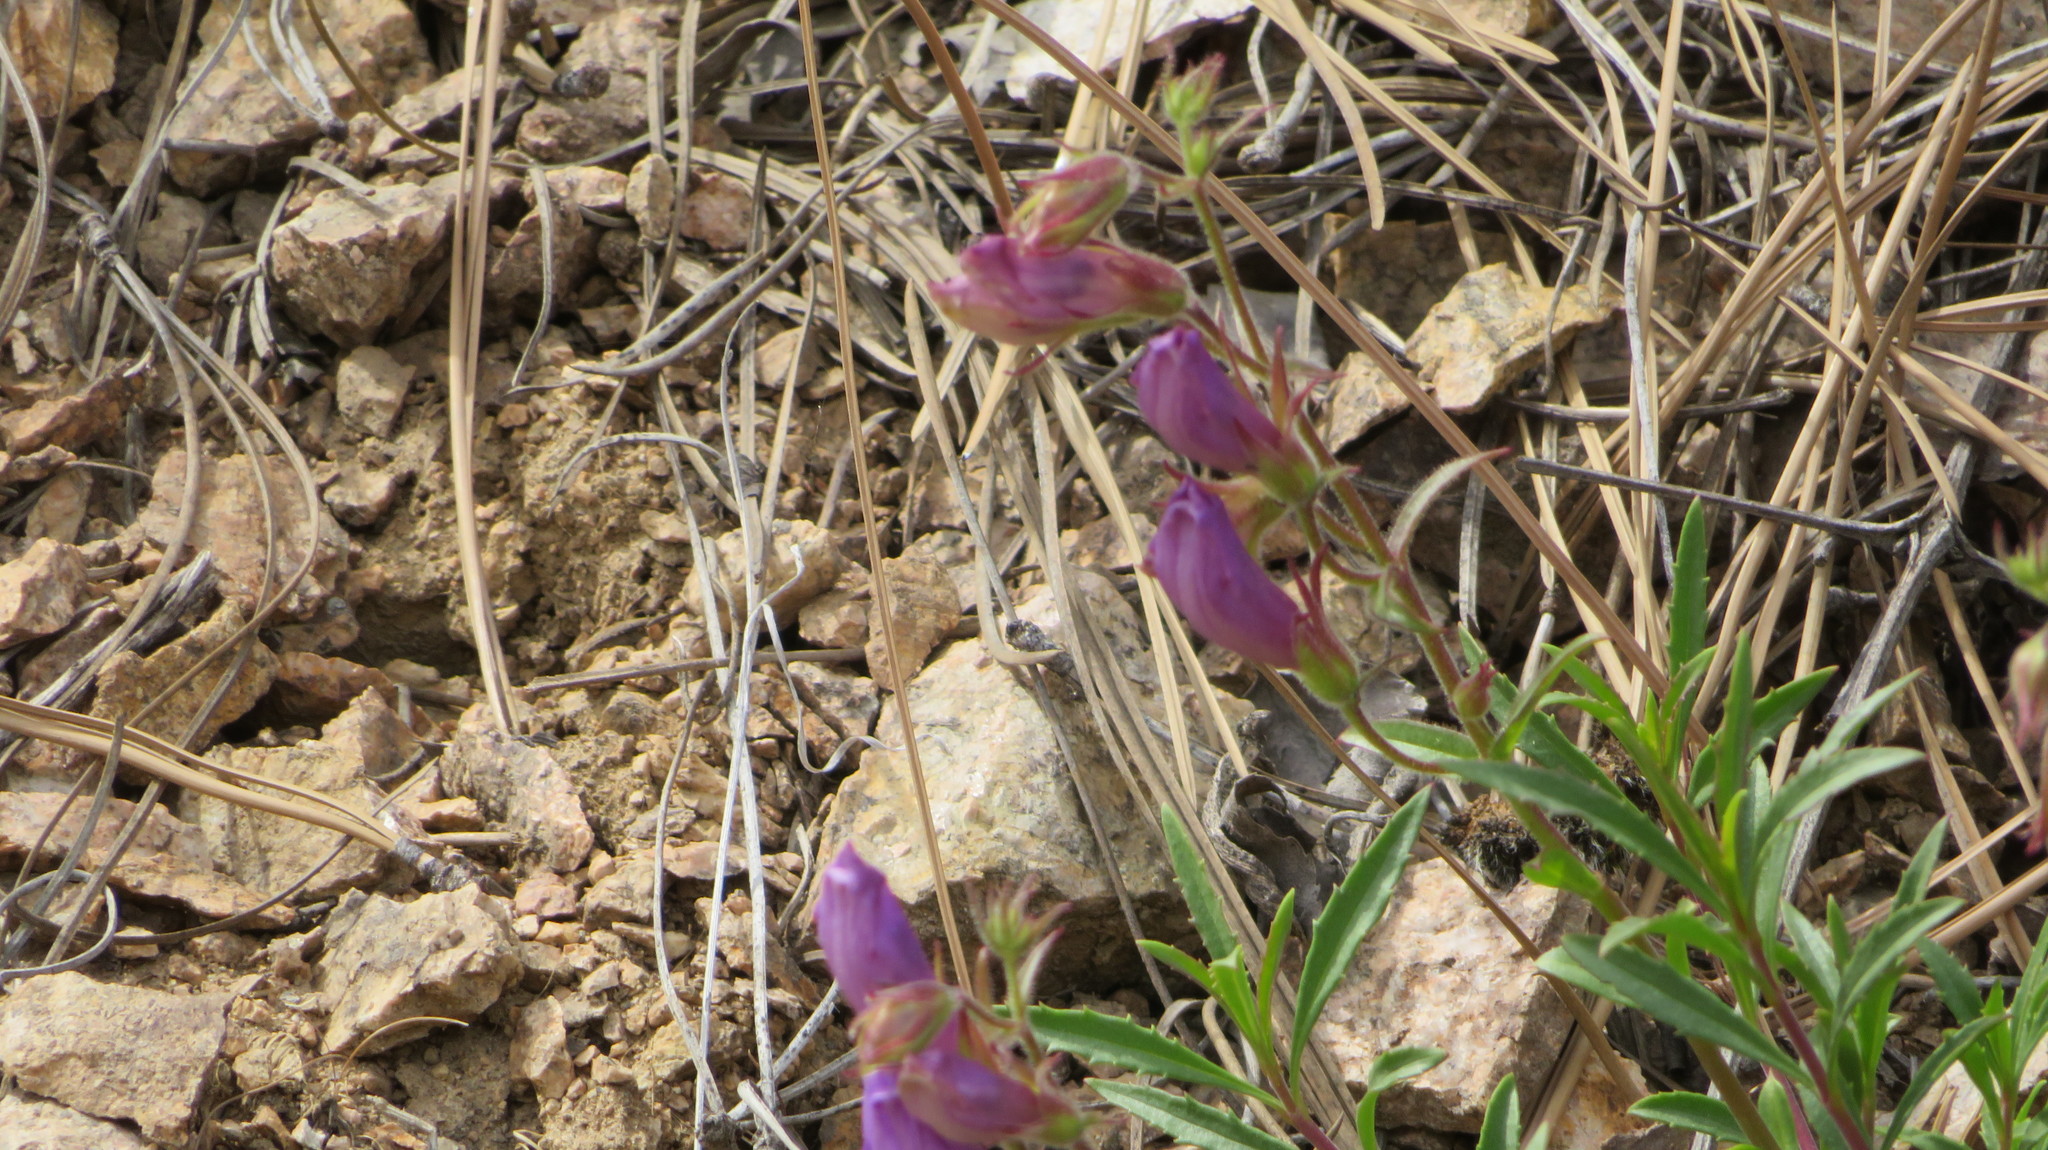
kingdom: Plantae
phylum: Tracheophyta
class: Magnoliopsida
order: Lamiales
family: Plantaginaceae
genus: Penstemon
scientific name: Penstemon fruticosus
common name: Bush penstemon
